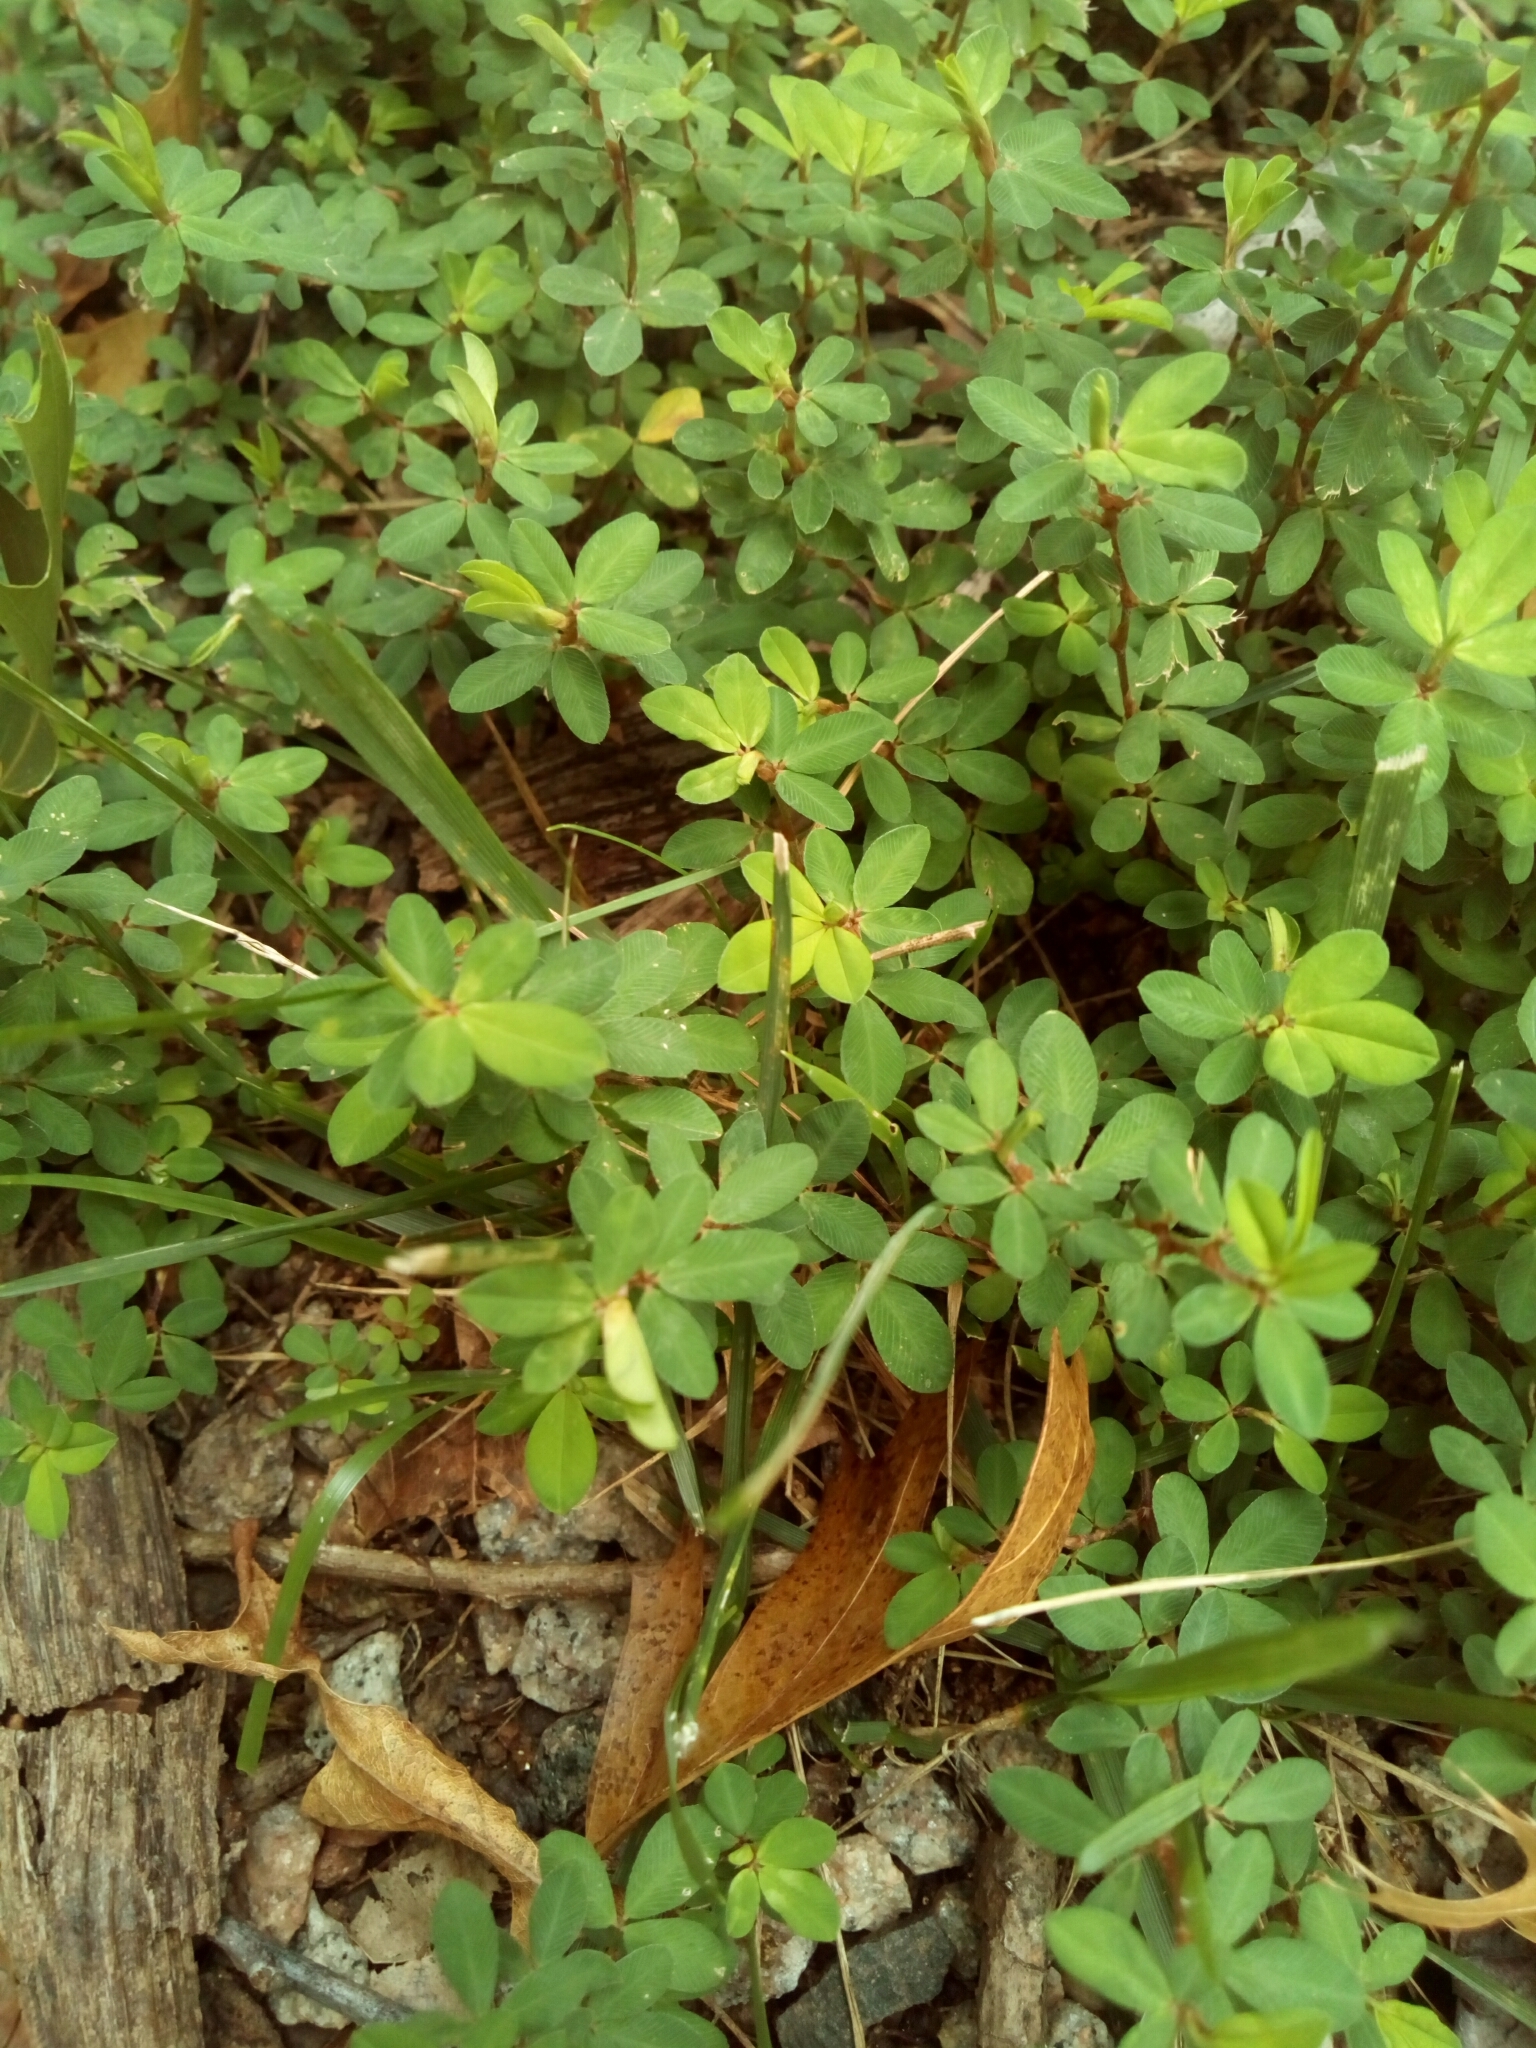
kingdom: Plantae
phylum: Tracheophyta
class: Magnoliopsida
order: Fabales
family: Fabaceae
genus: Kummerowia
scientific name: Kummerowia striata
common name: Japanese clover
